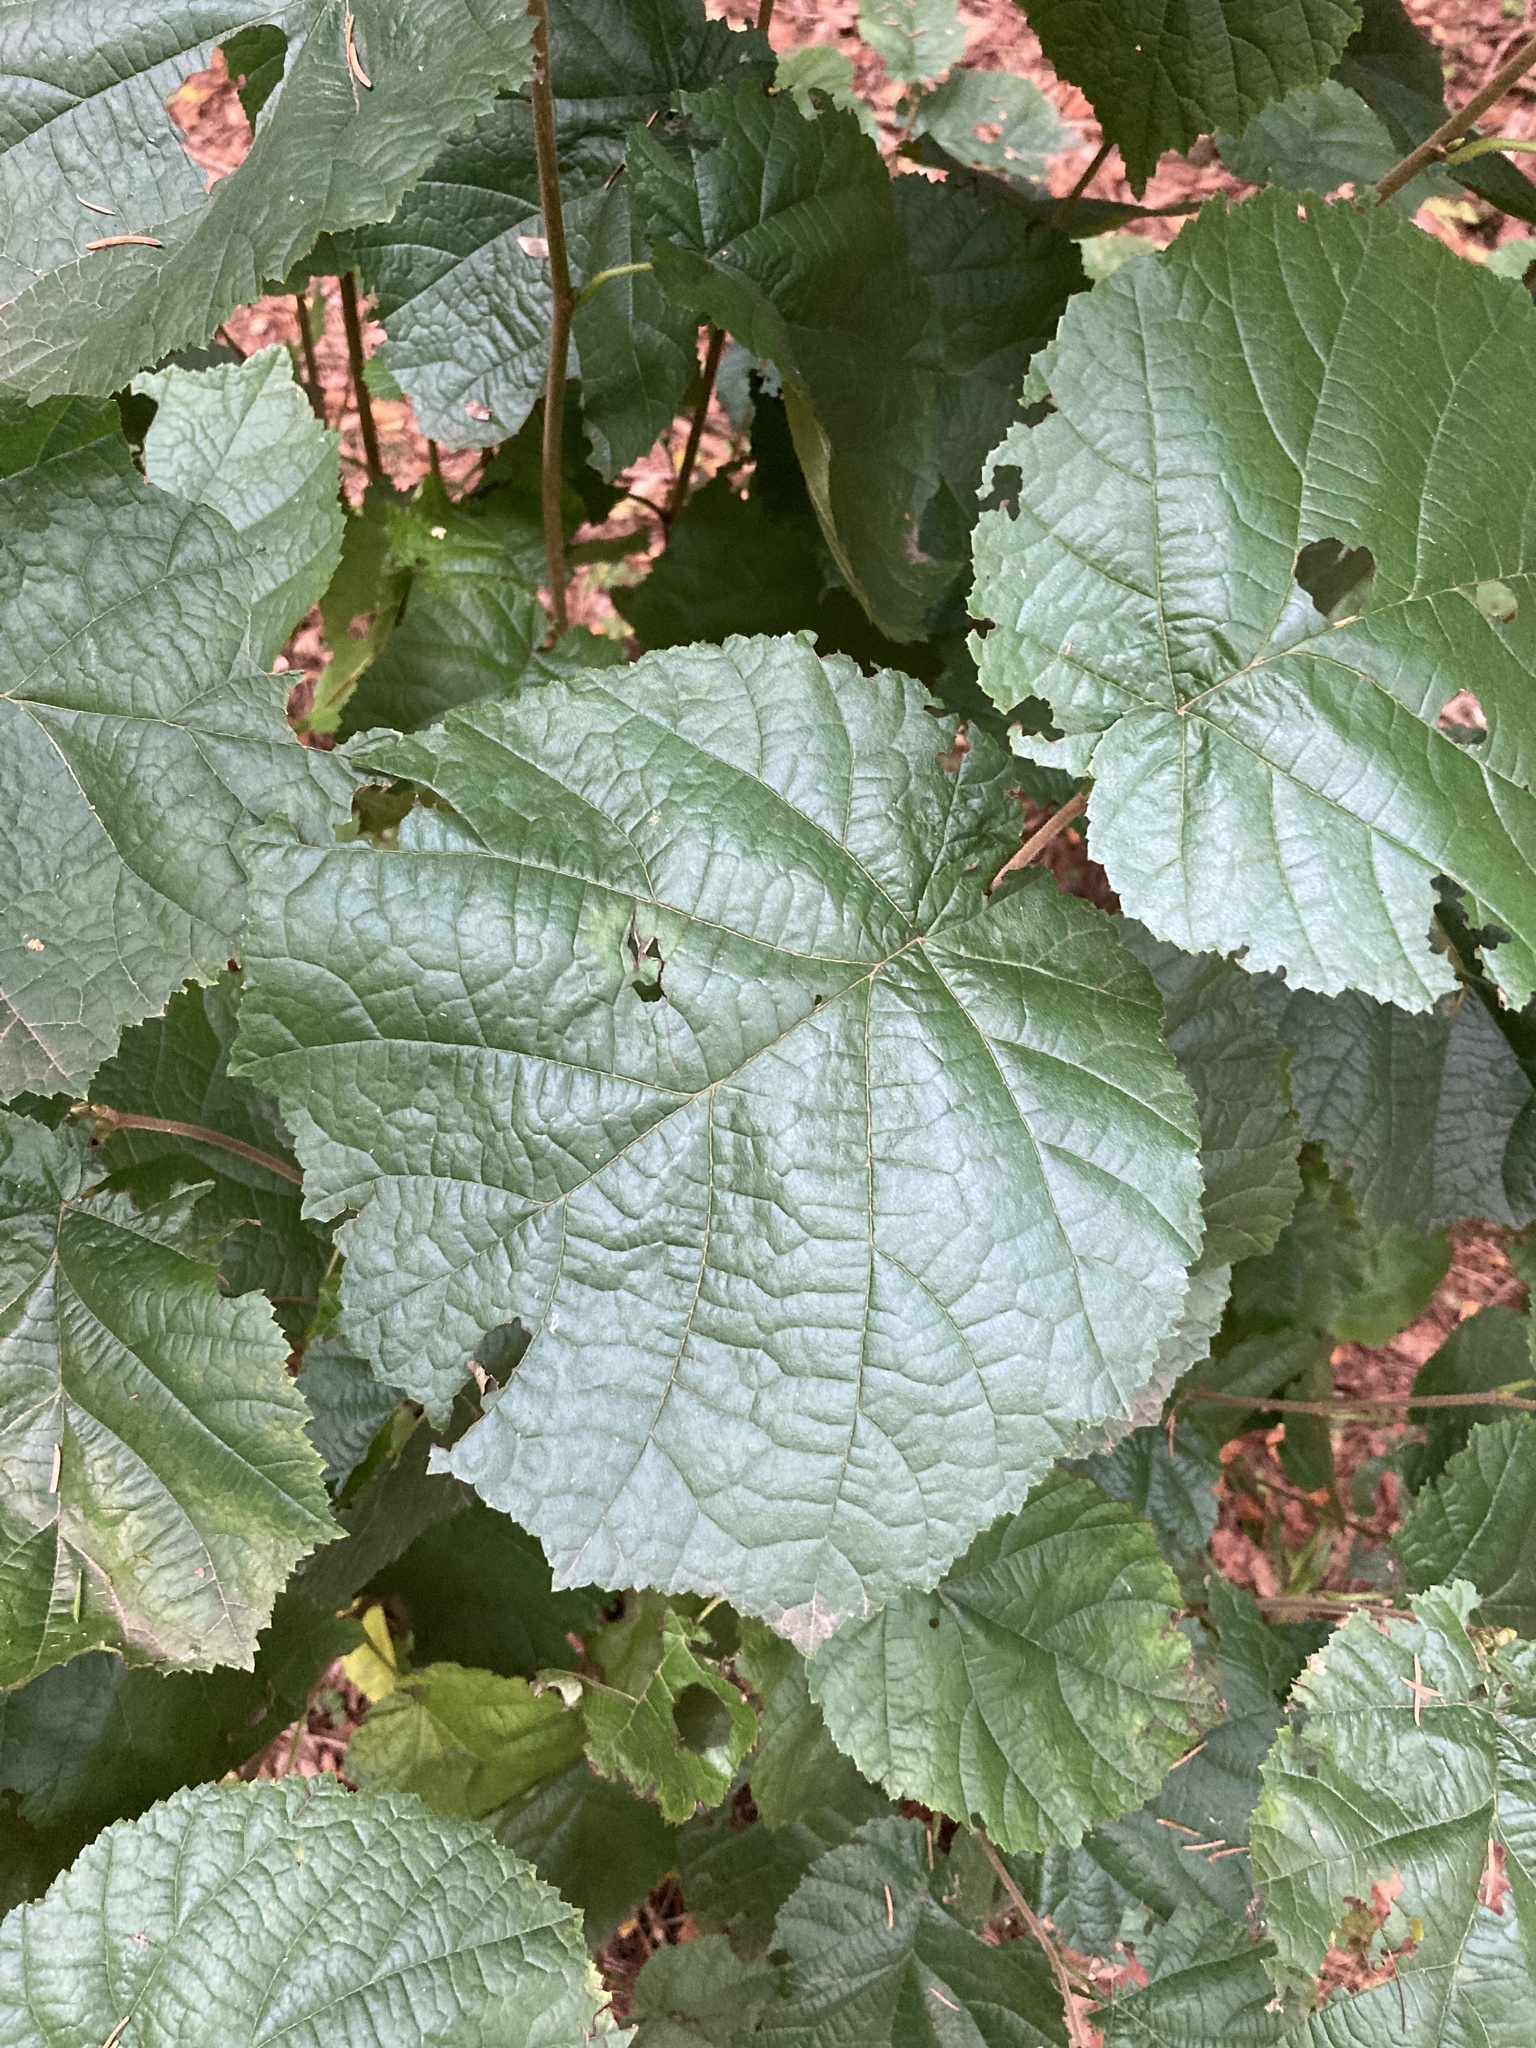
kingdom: Plantae
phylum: Tracheophyta
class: Magnoliopsida
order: Fagales
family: Betulaceae
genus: Corylus
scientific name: Corylus avellana
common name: European hazel
